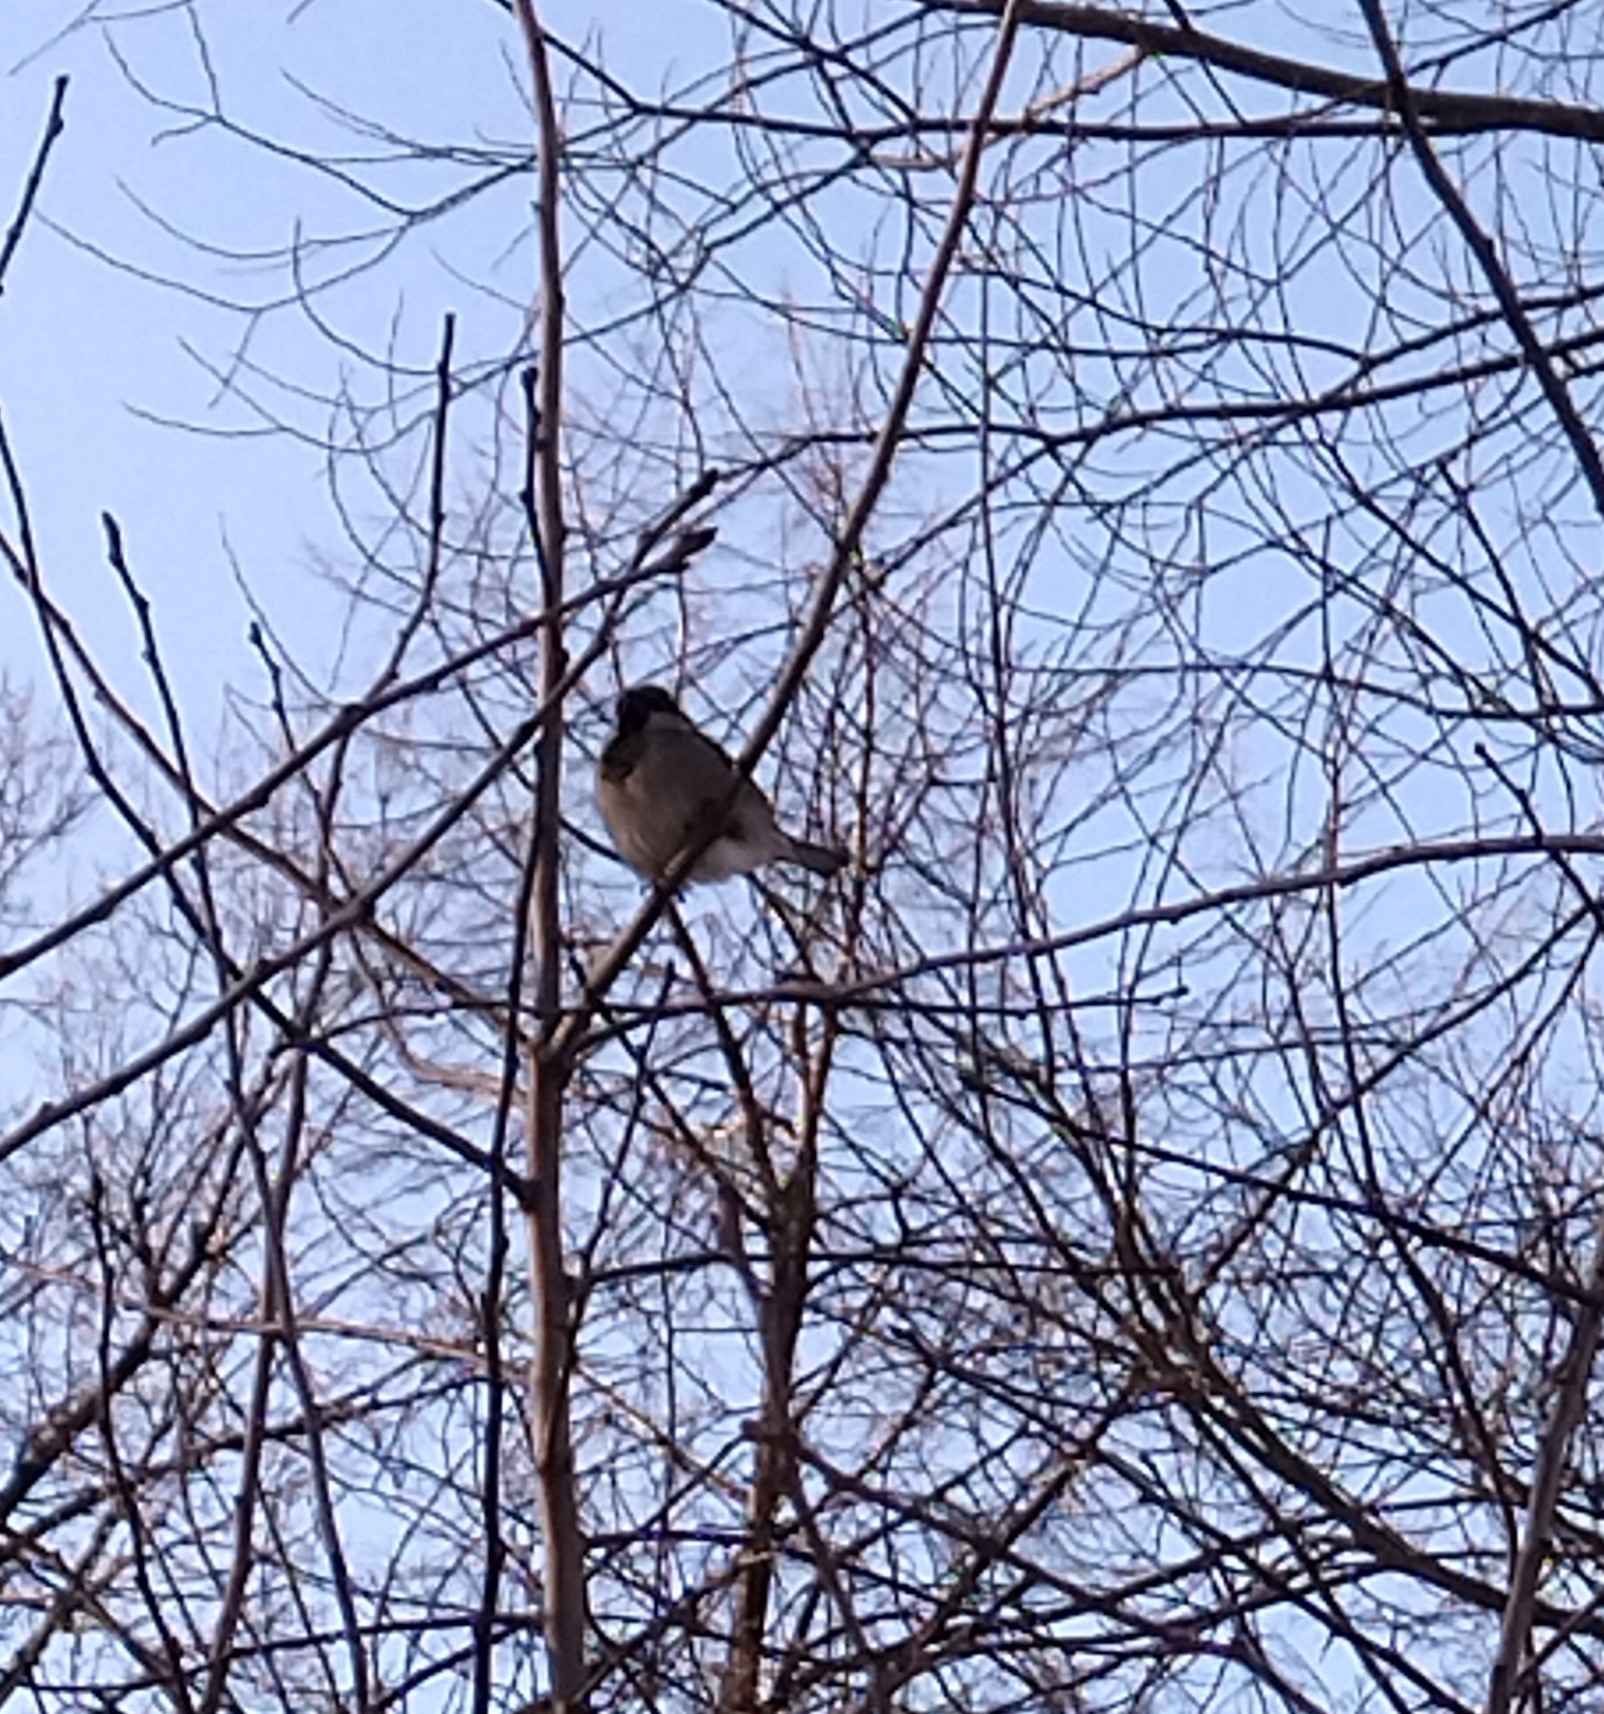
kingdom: Animalia
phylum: Chordata
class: Aves
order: Passeriformes
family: Passeridae
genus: Passer
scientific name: Passer domesticus
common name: House sparrow
